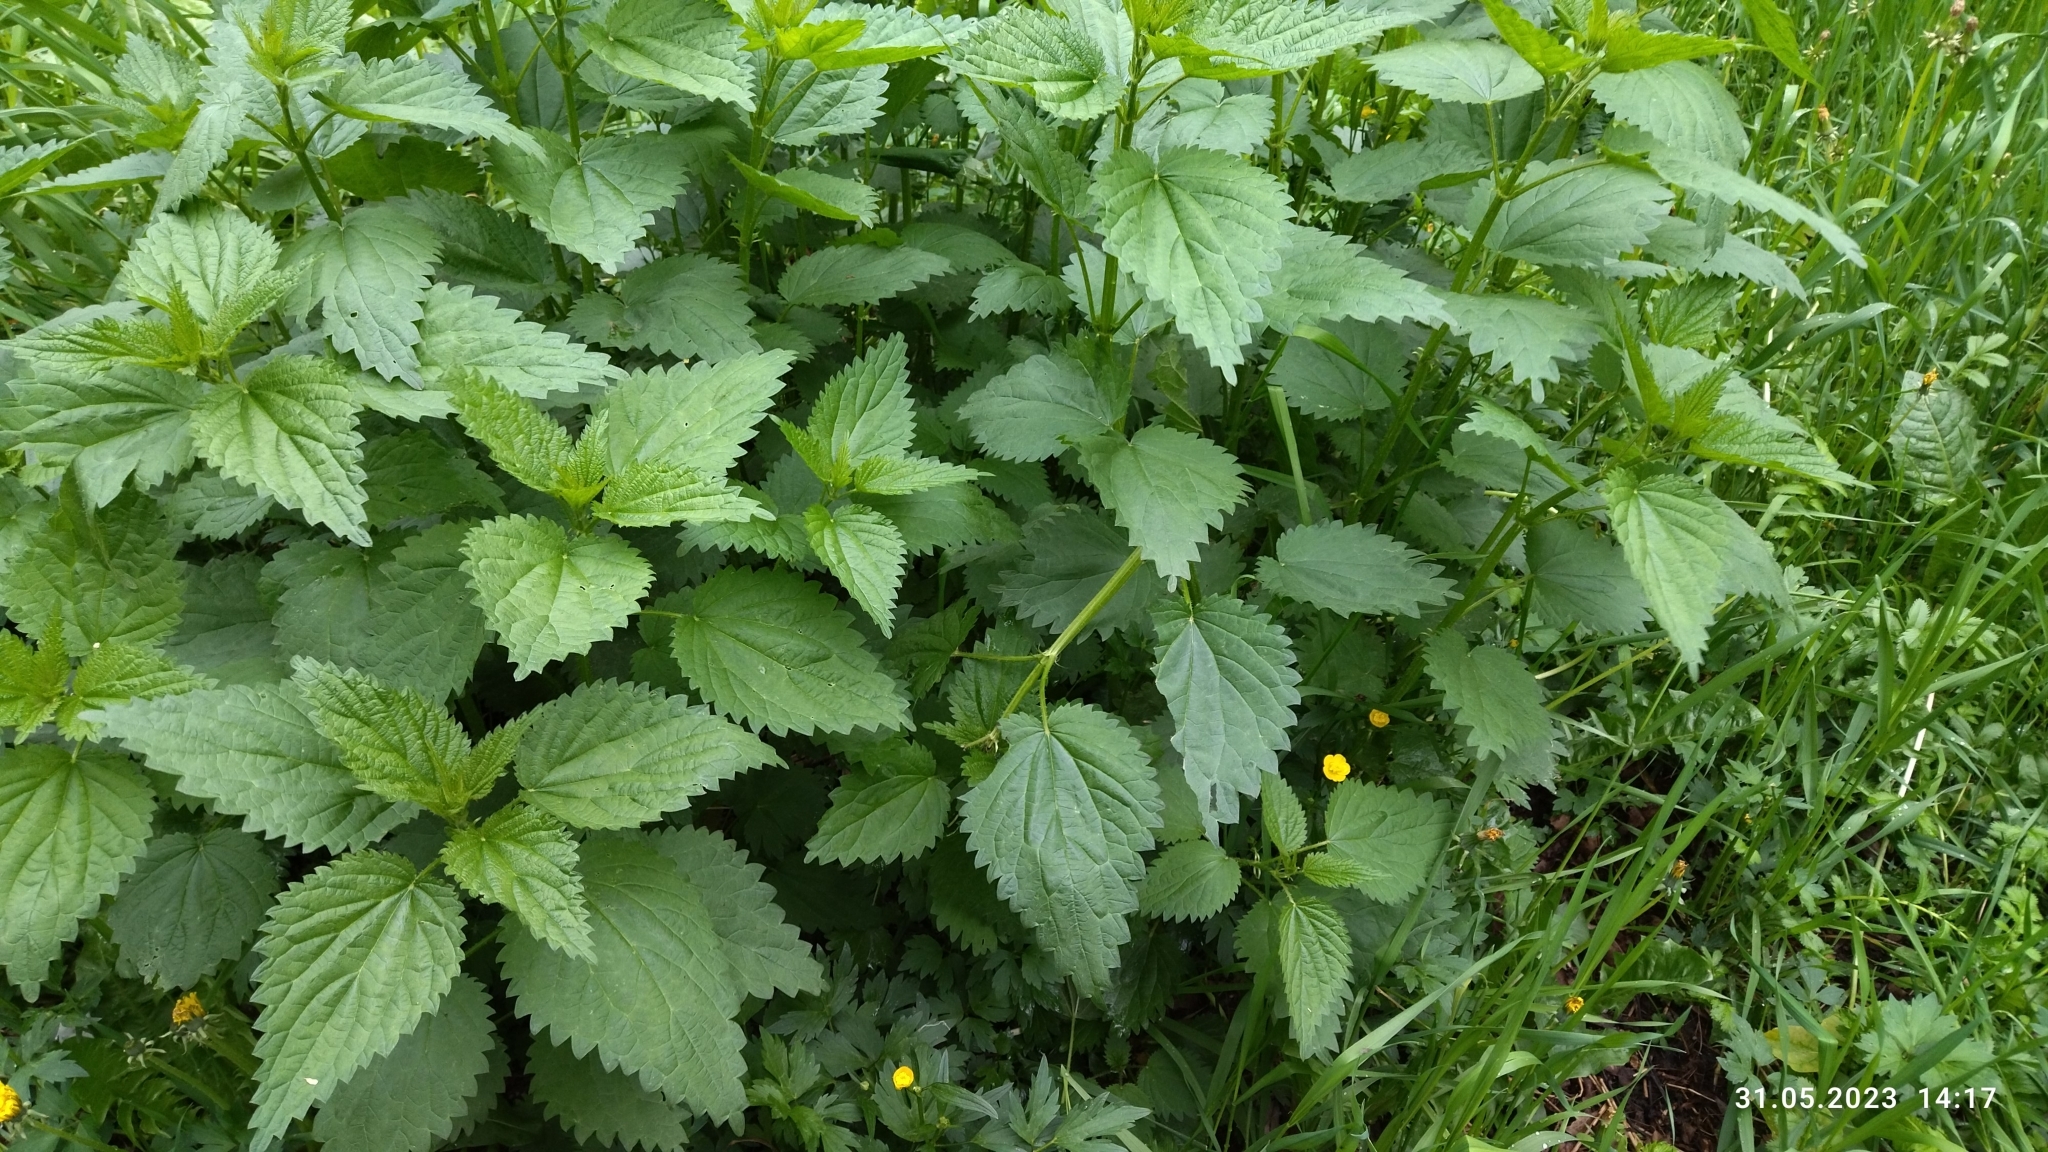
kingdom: Plantae
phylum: Tracheophyta
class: Magnoliopsida
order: Rosales
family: Urticaceae
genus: Urtica
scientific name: Urtica dioica
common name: Common nettle
